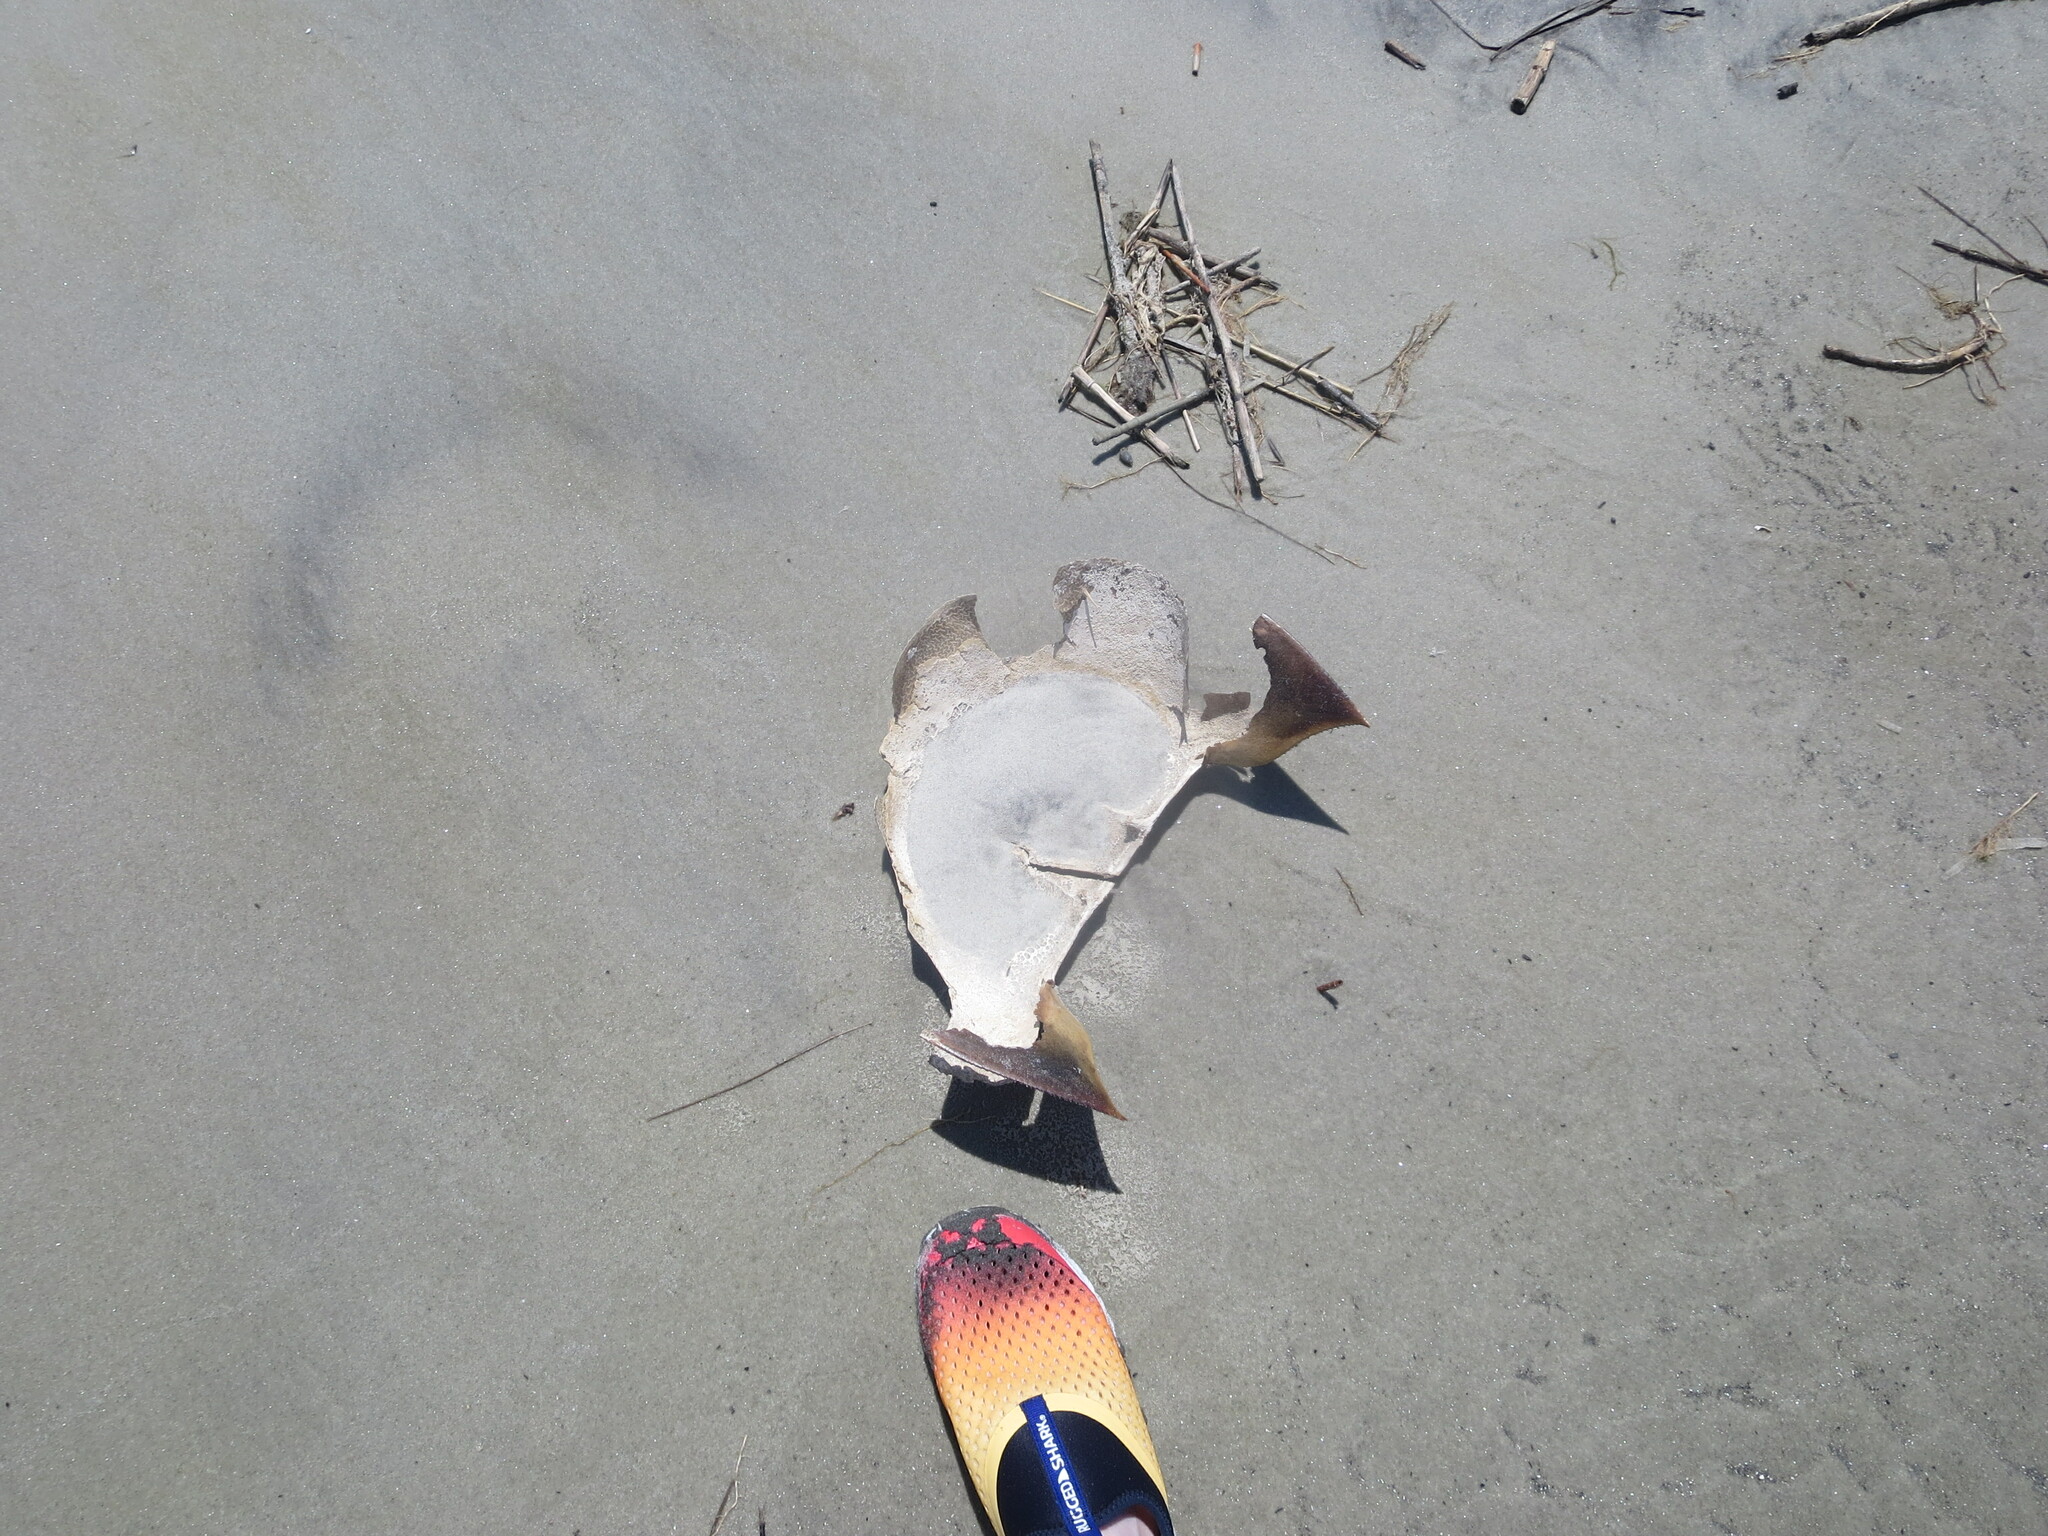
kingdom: Animalia
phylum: Arthropoda
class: Merostomata
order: Xiphosurida
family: Limulidae
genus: Limulus
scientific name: Limulus polyphemus
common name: Horseshoe crab
